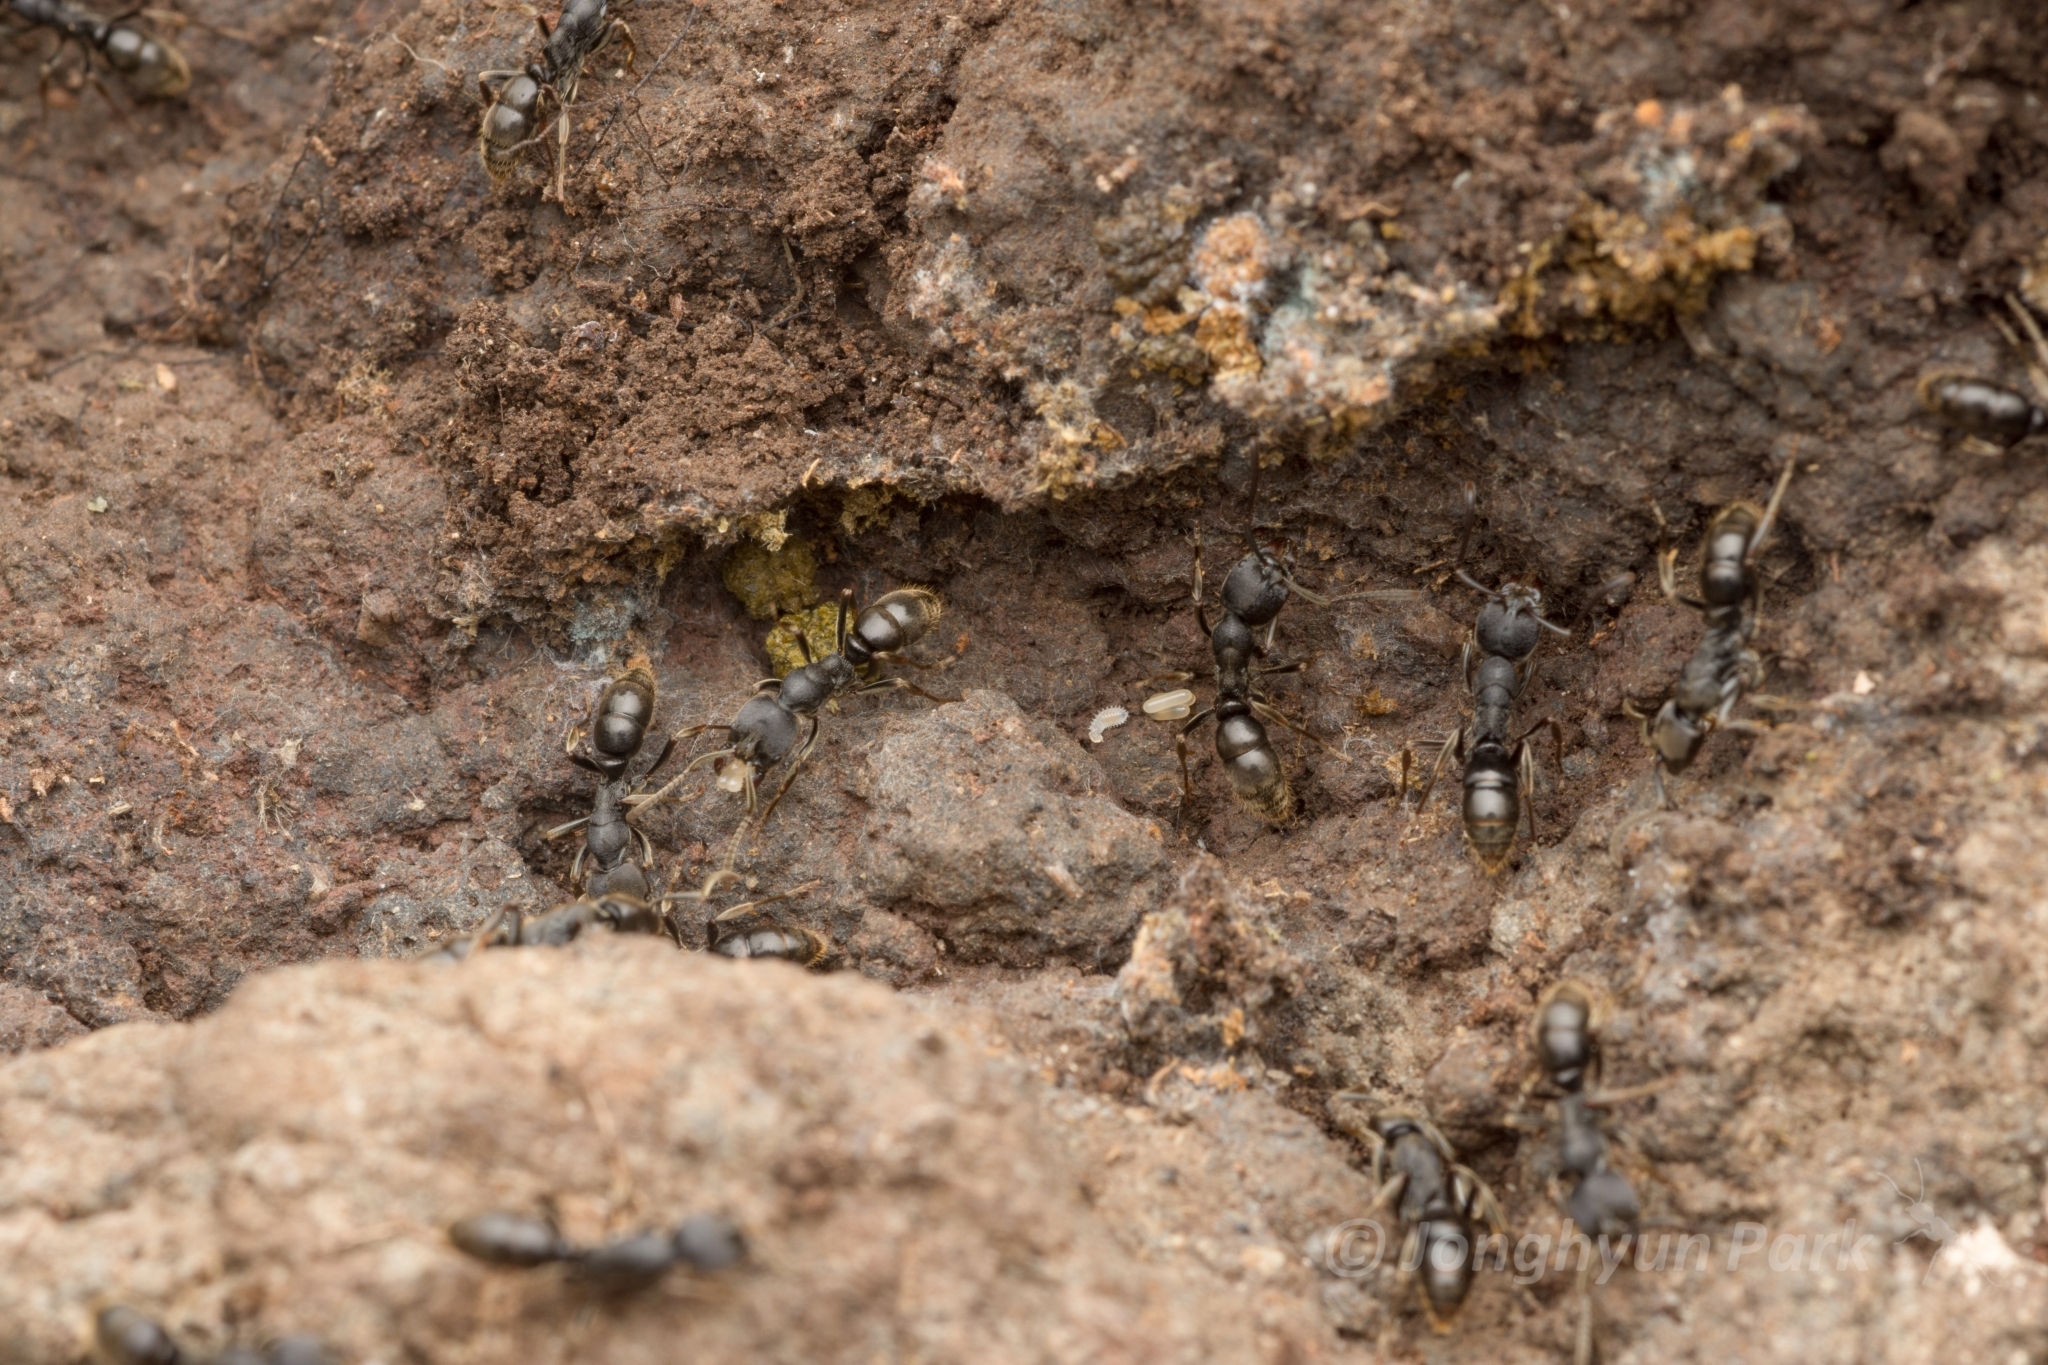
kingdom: Animalia
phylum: Arthropoda
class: Insecta
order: Hymenoptera
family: Formicidae
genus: Ectomomyrmex
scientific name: Ectomomyrmex javanus
